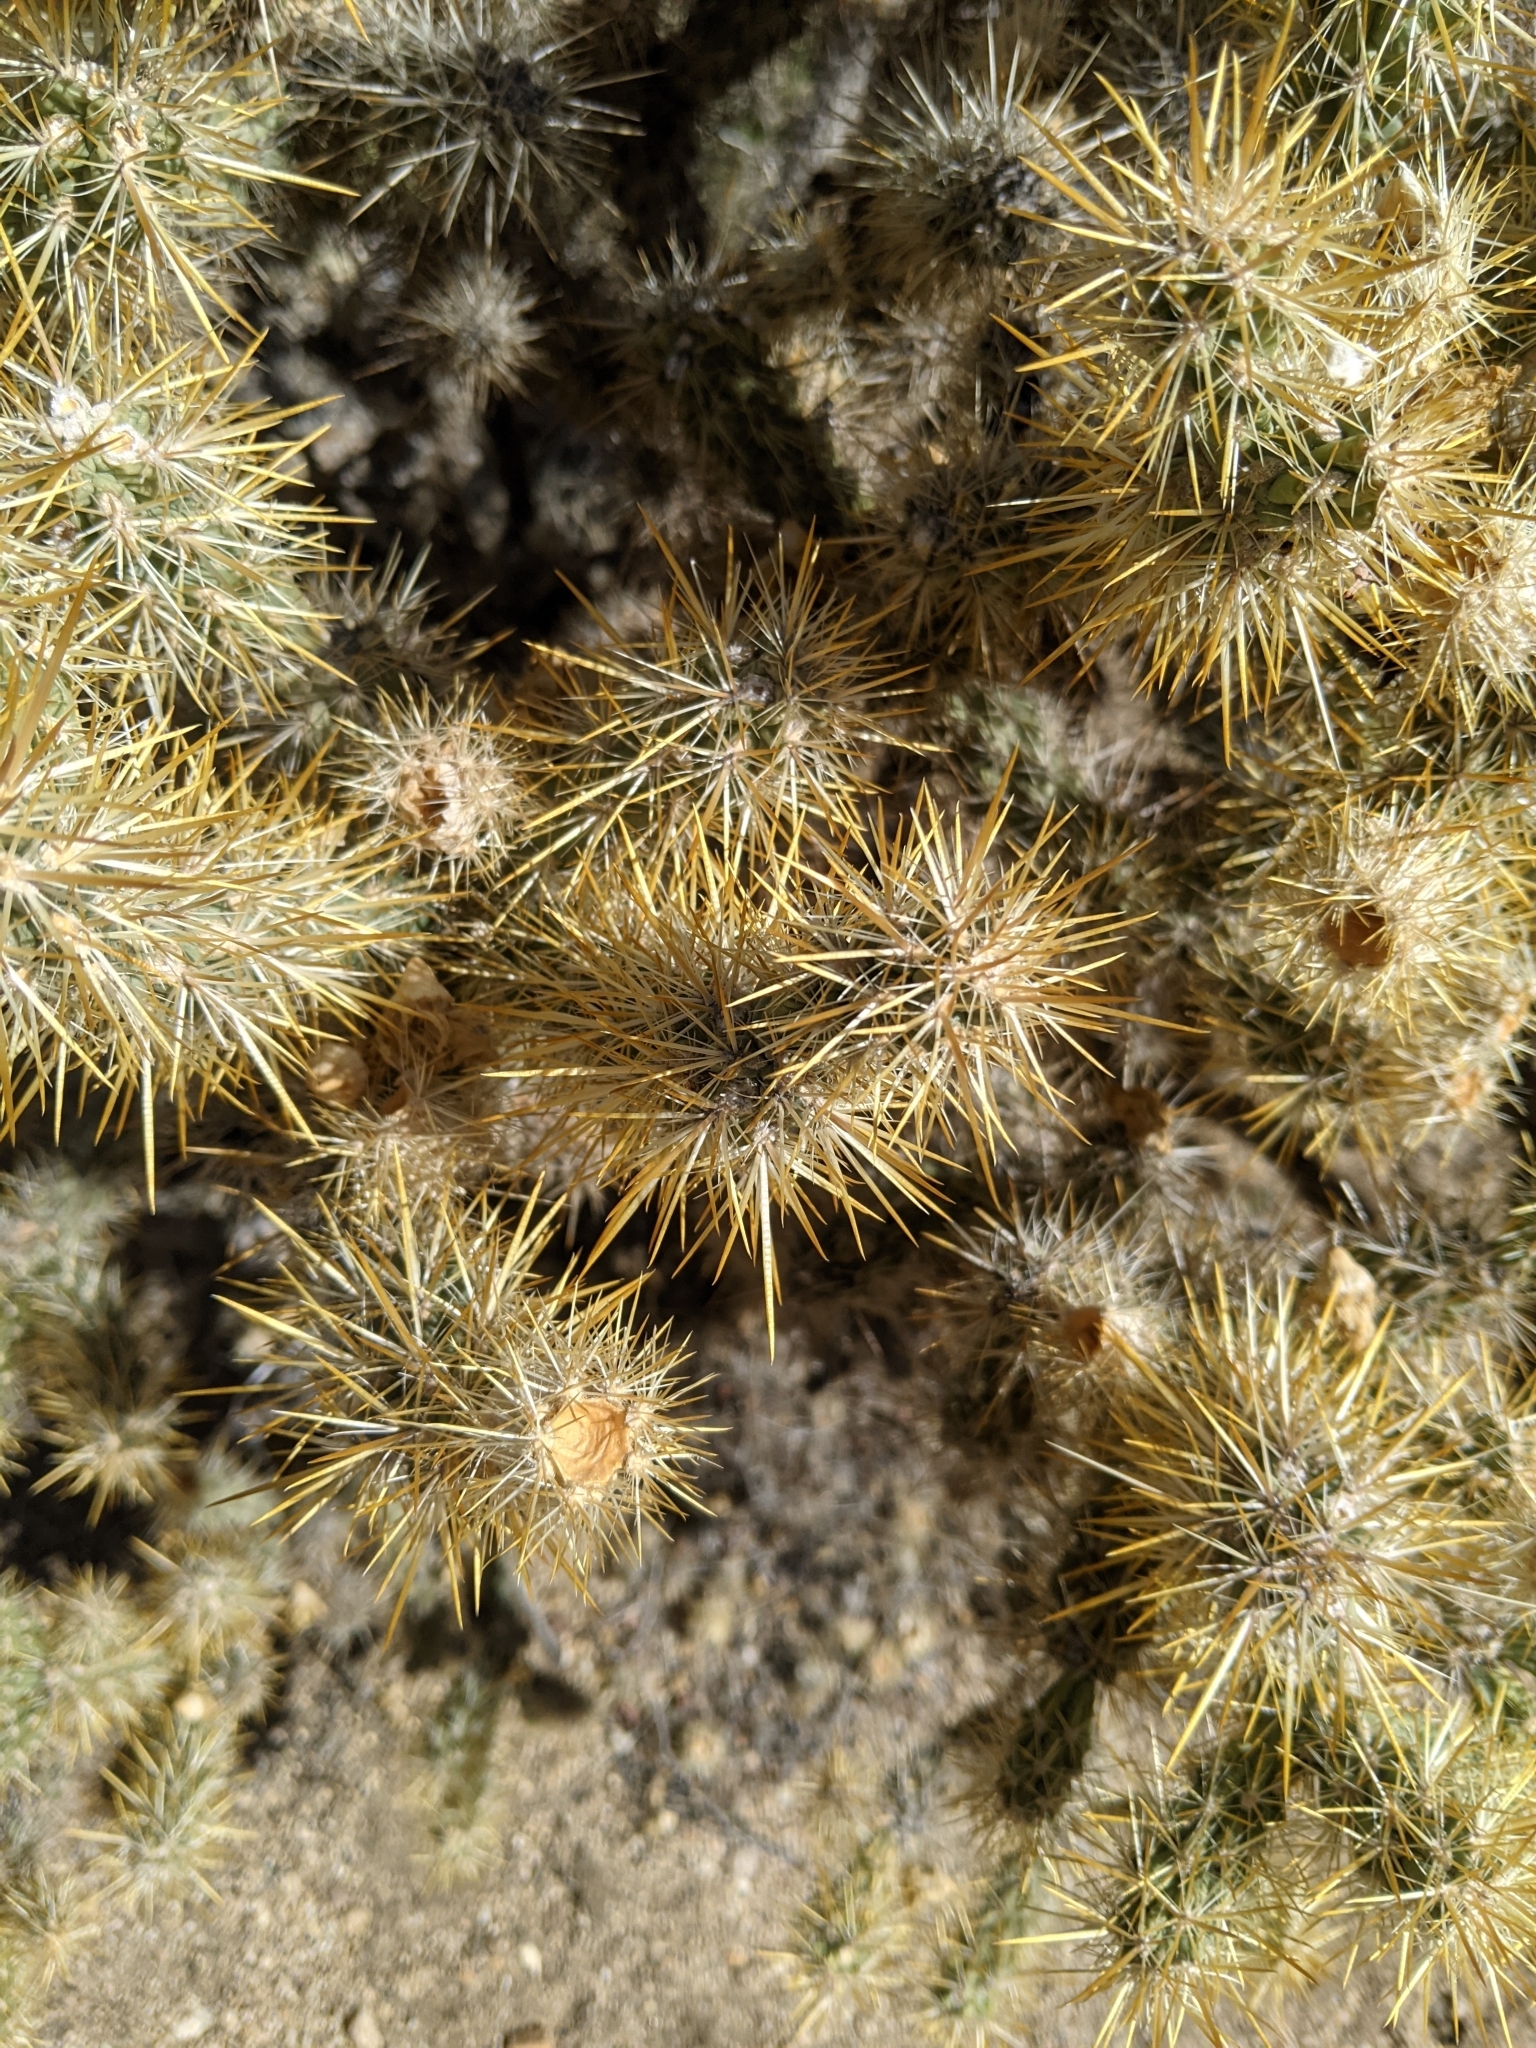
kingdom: Plantae
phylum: Tracheophyta
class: Magnoliopsida
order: Caryophyllales
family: Cactaceae
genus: Cylindropuntia
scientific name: Cylindropuntia echinocarpa
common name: Ground cholla
